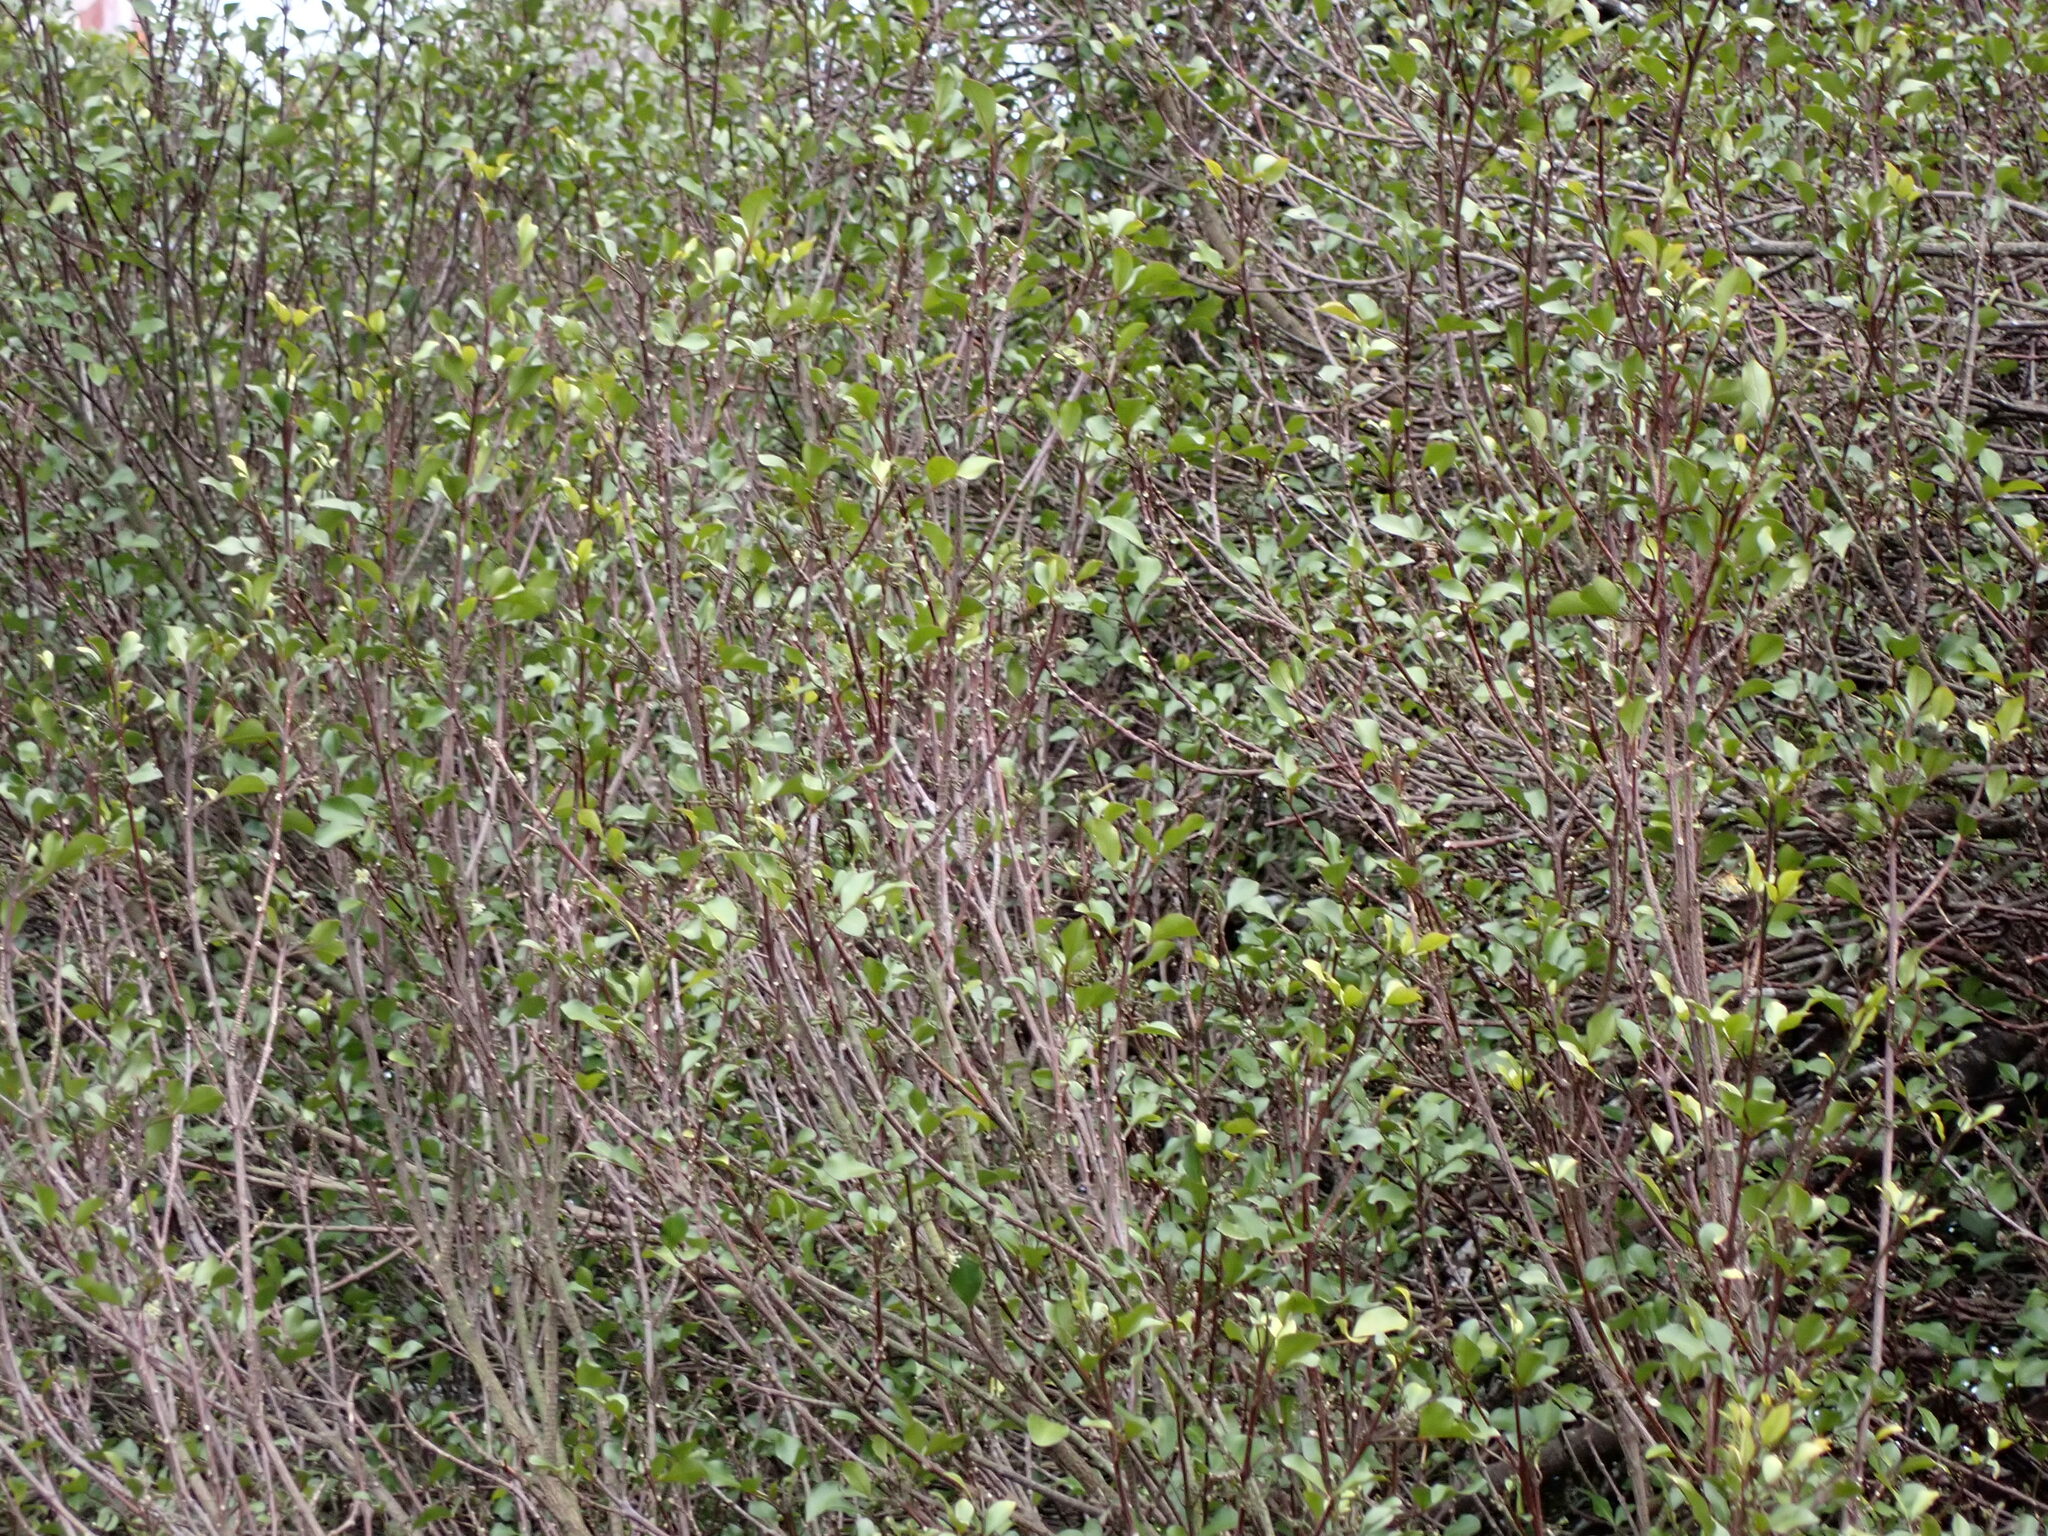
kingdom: Plantae
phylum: Tracheophyta
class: Magnoliopsida
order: Sapindales
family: Rutaceae
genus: Melicope
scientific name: Melicope simplex
